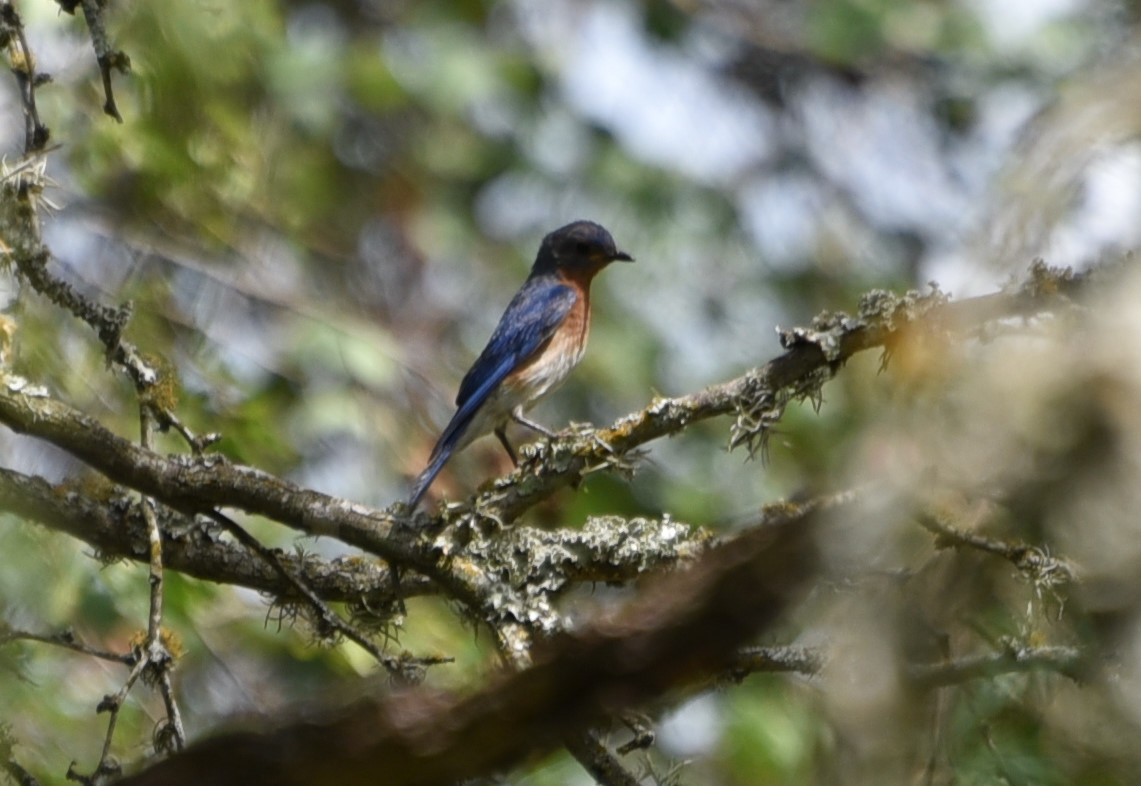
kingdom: Animalia
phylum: Chordata
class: Aves
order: Passeriformes
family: Turdidae
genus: Sialia
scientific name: Sialia sialis
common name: Eastern bluebird
